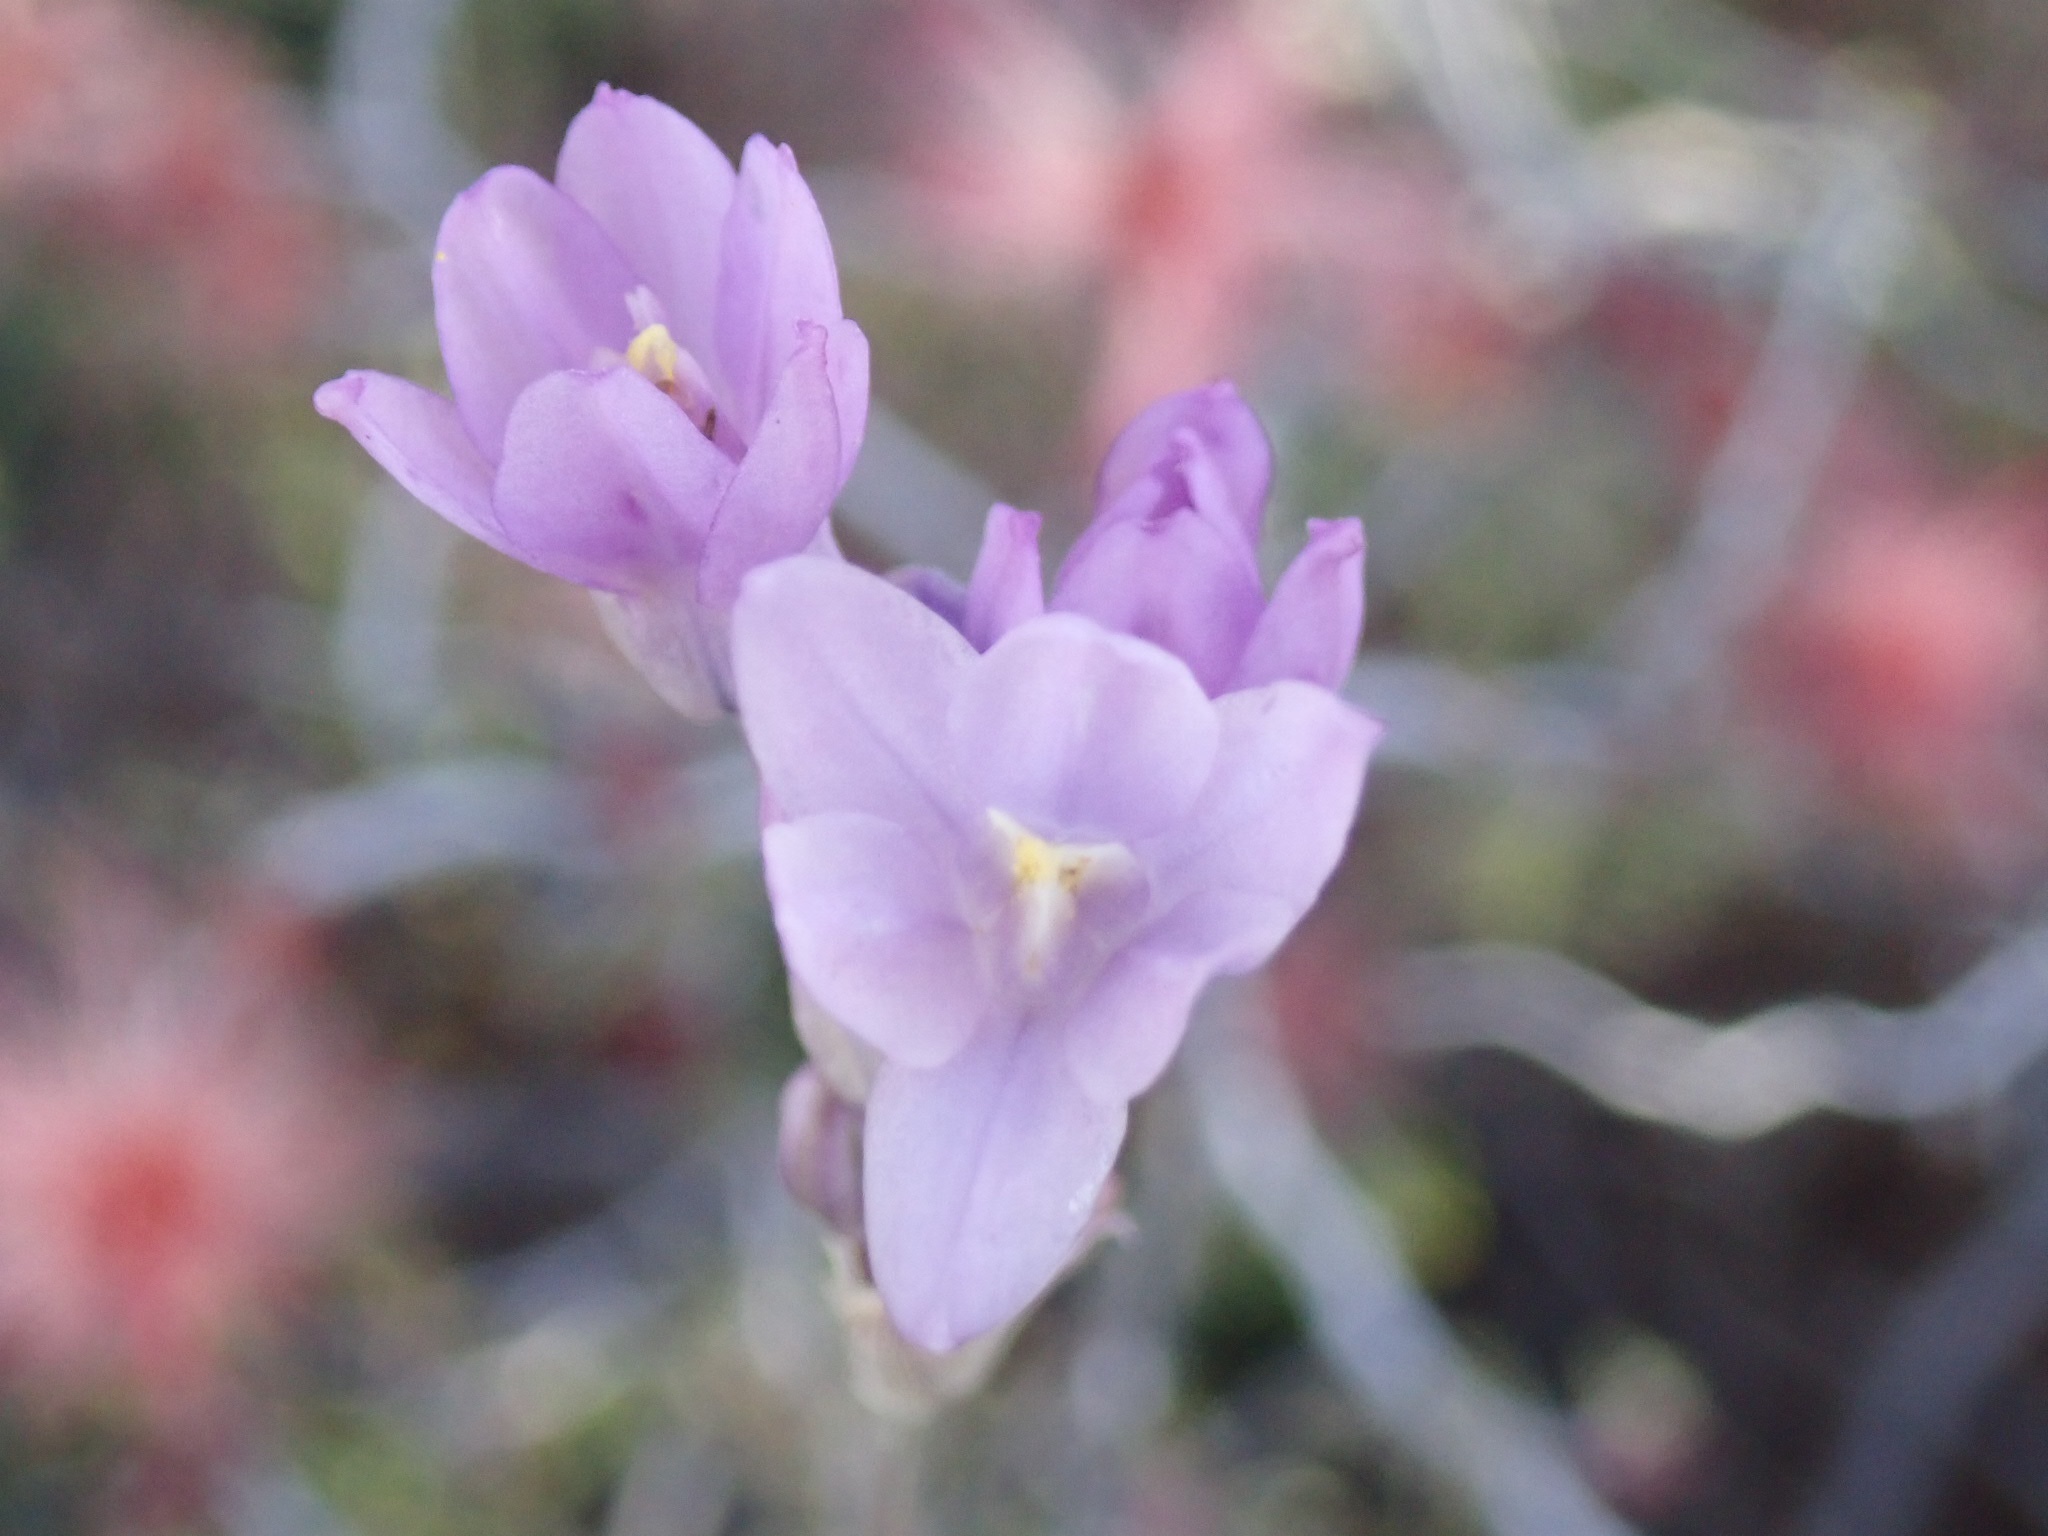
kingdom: Plantae
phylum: Tracheophyta
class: Liliopsida
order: Asparagales
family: Asparagaceae
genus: Dipterostemon
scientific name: Dipterostemon capitatus
